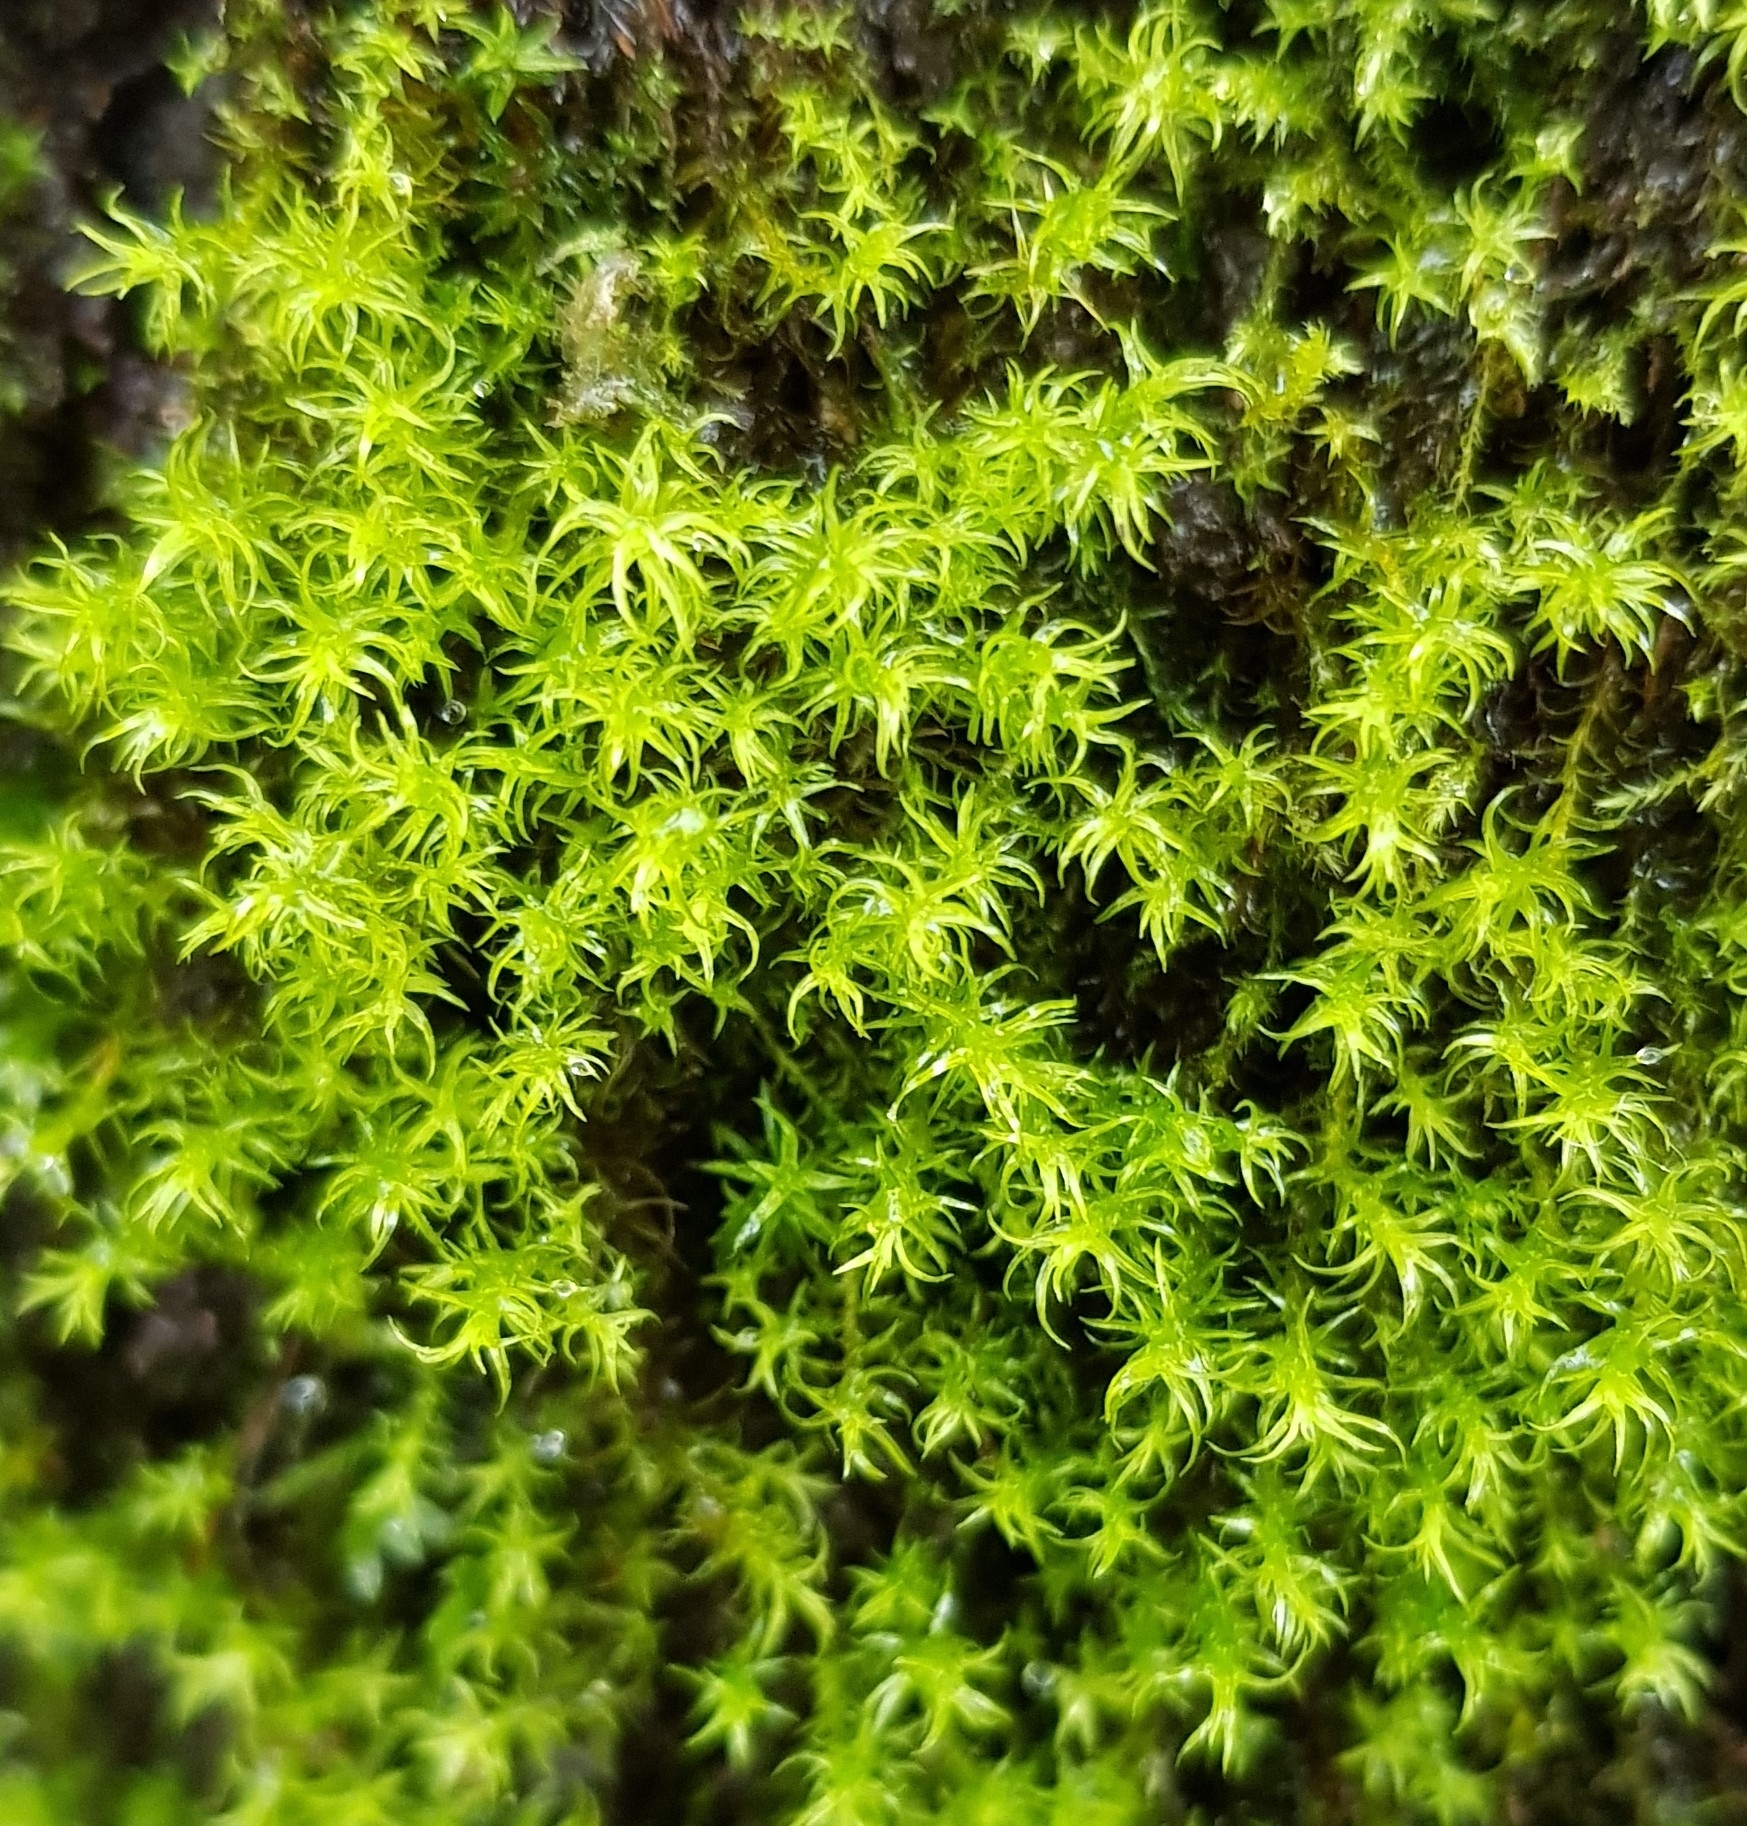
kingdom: Plantae
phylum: Bryophyta
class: Bryopsida
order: Pottiales
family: Pottiaceae
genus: Vinealobryum
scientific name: Vinealobryum insulanum
